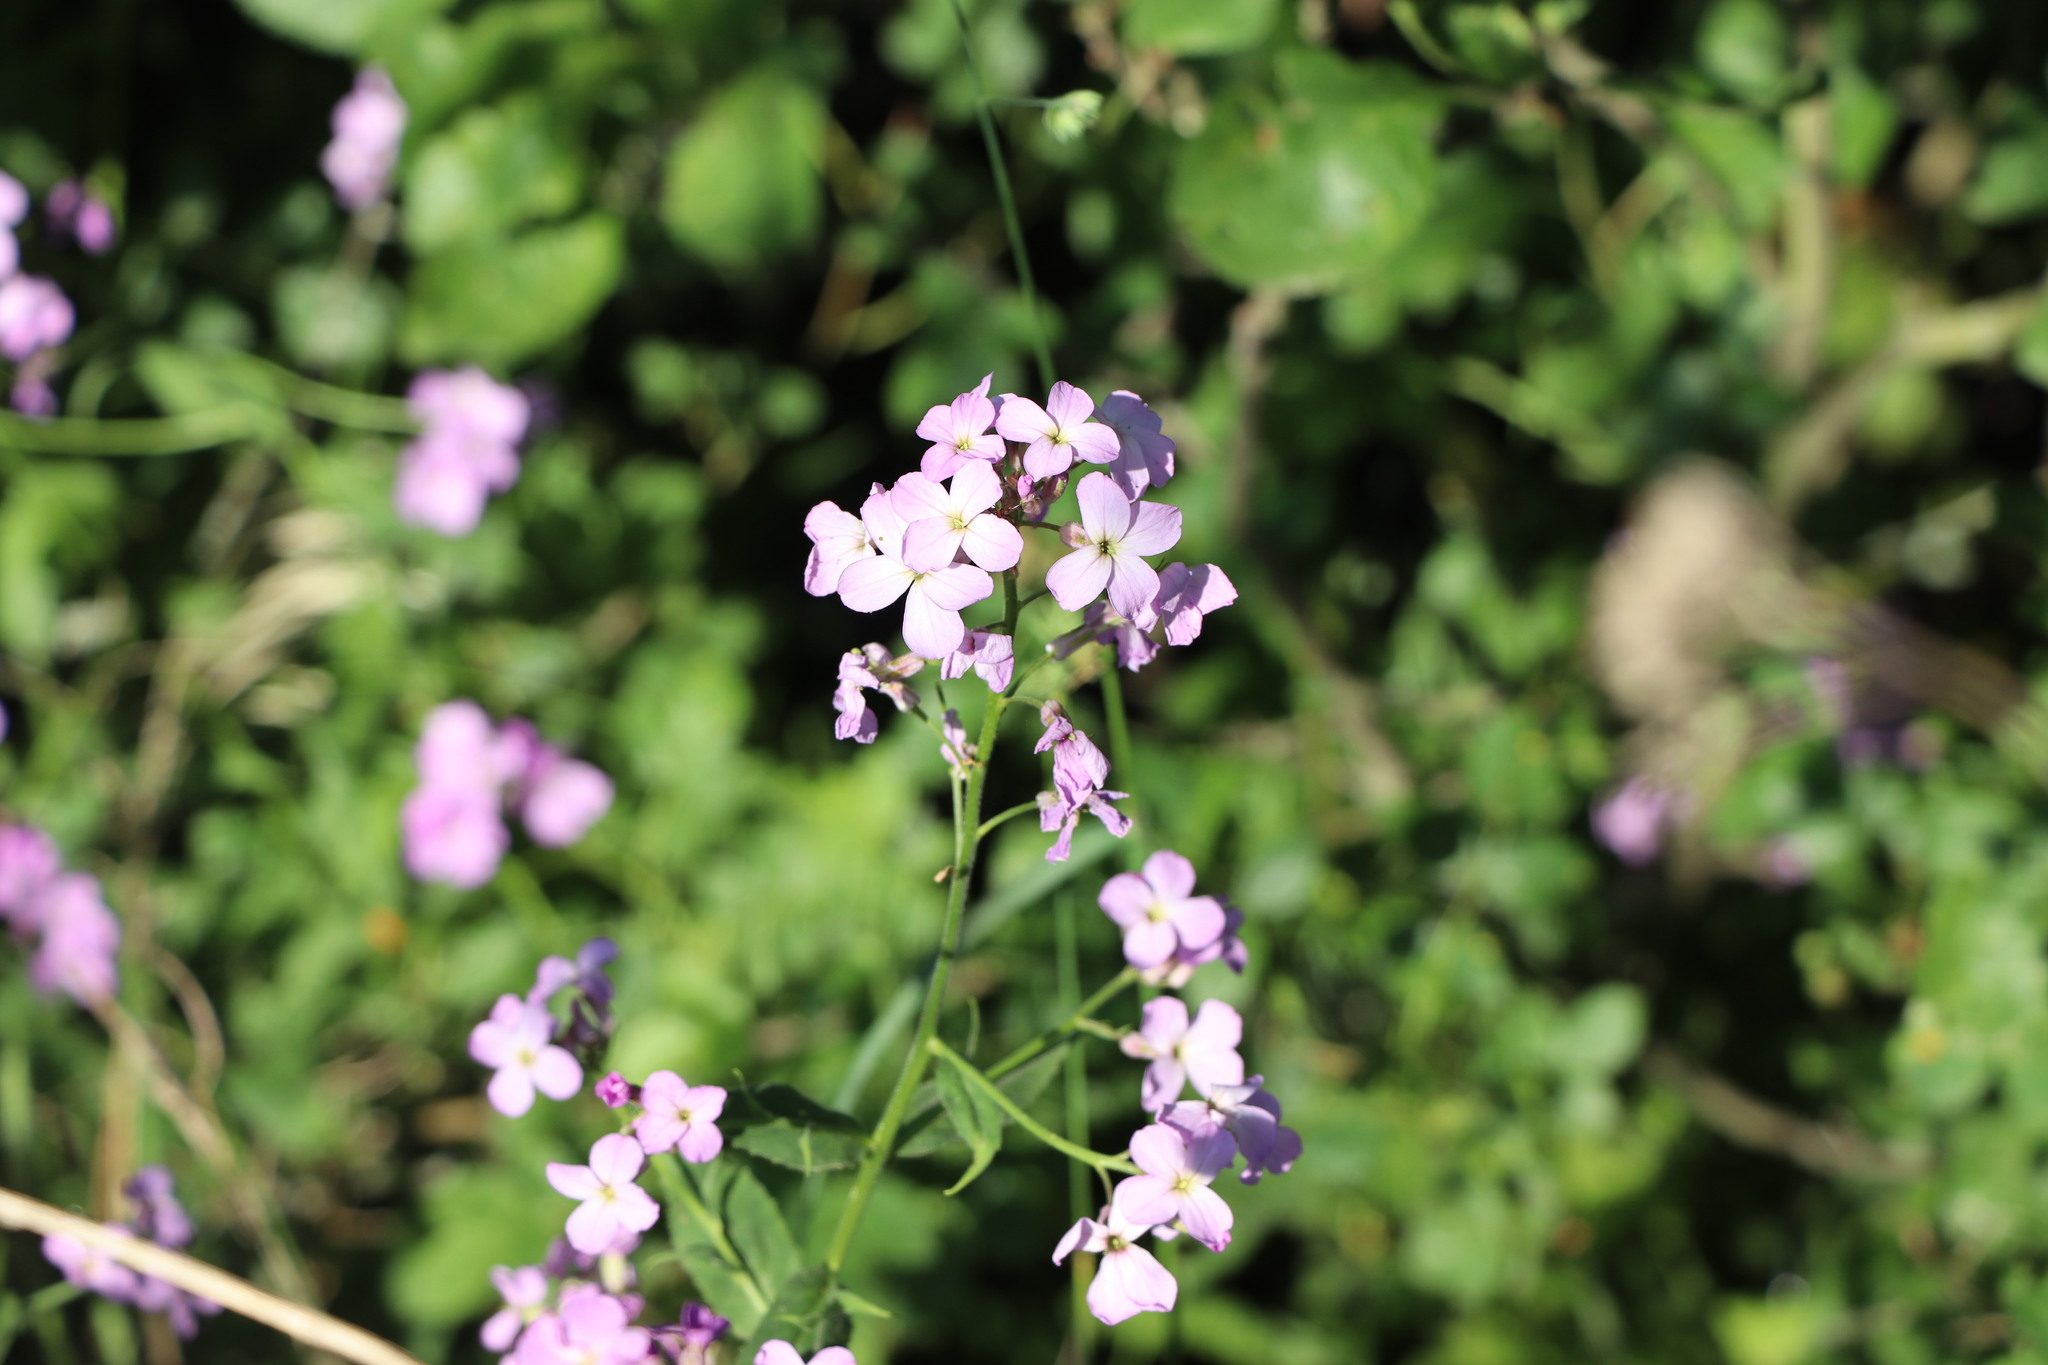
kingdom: Plantae
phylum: Tracheophyta
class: Magnoliopsida
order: Brassicales
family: Brassicaceae
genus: Hesperis
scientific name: Hesperis matronalis
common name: Dame's-violet
